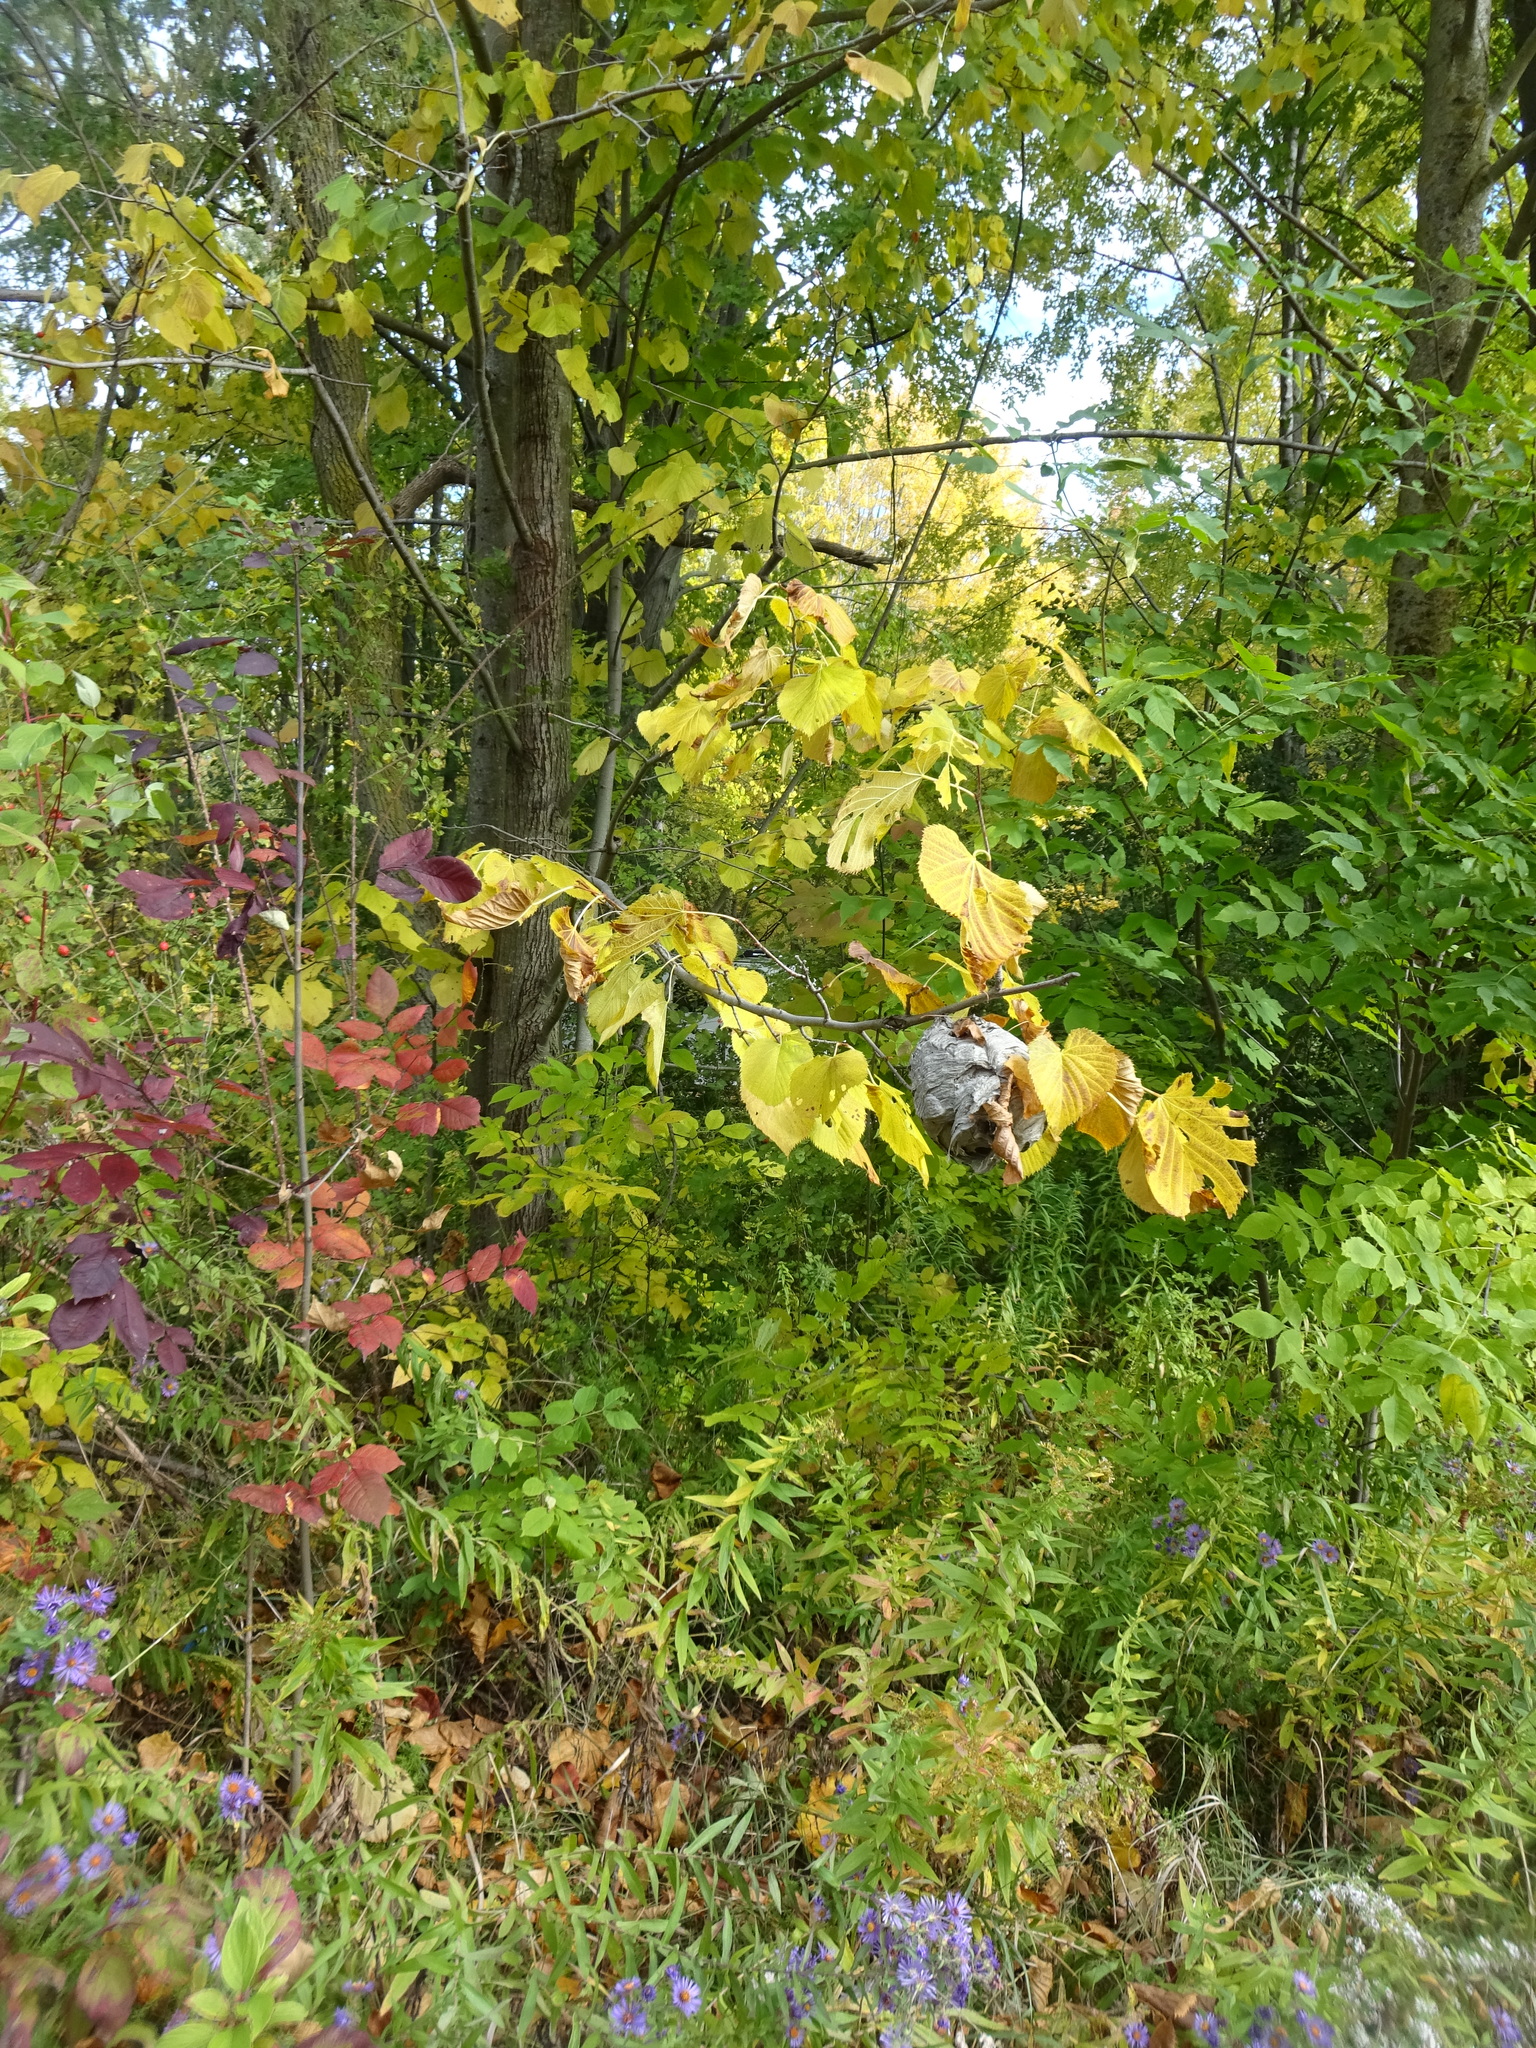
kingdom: Animalia
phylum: Arthropoda
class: Insecta
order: Hymenoptera
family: Vespidae
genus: Dolichovespula
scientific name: Dolichovespula
